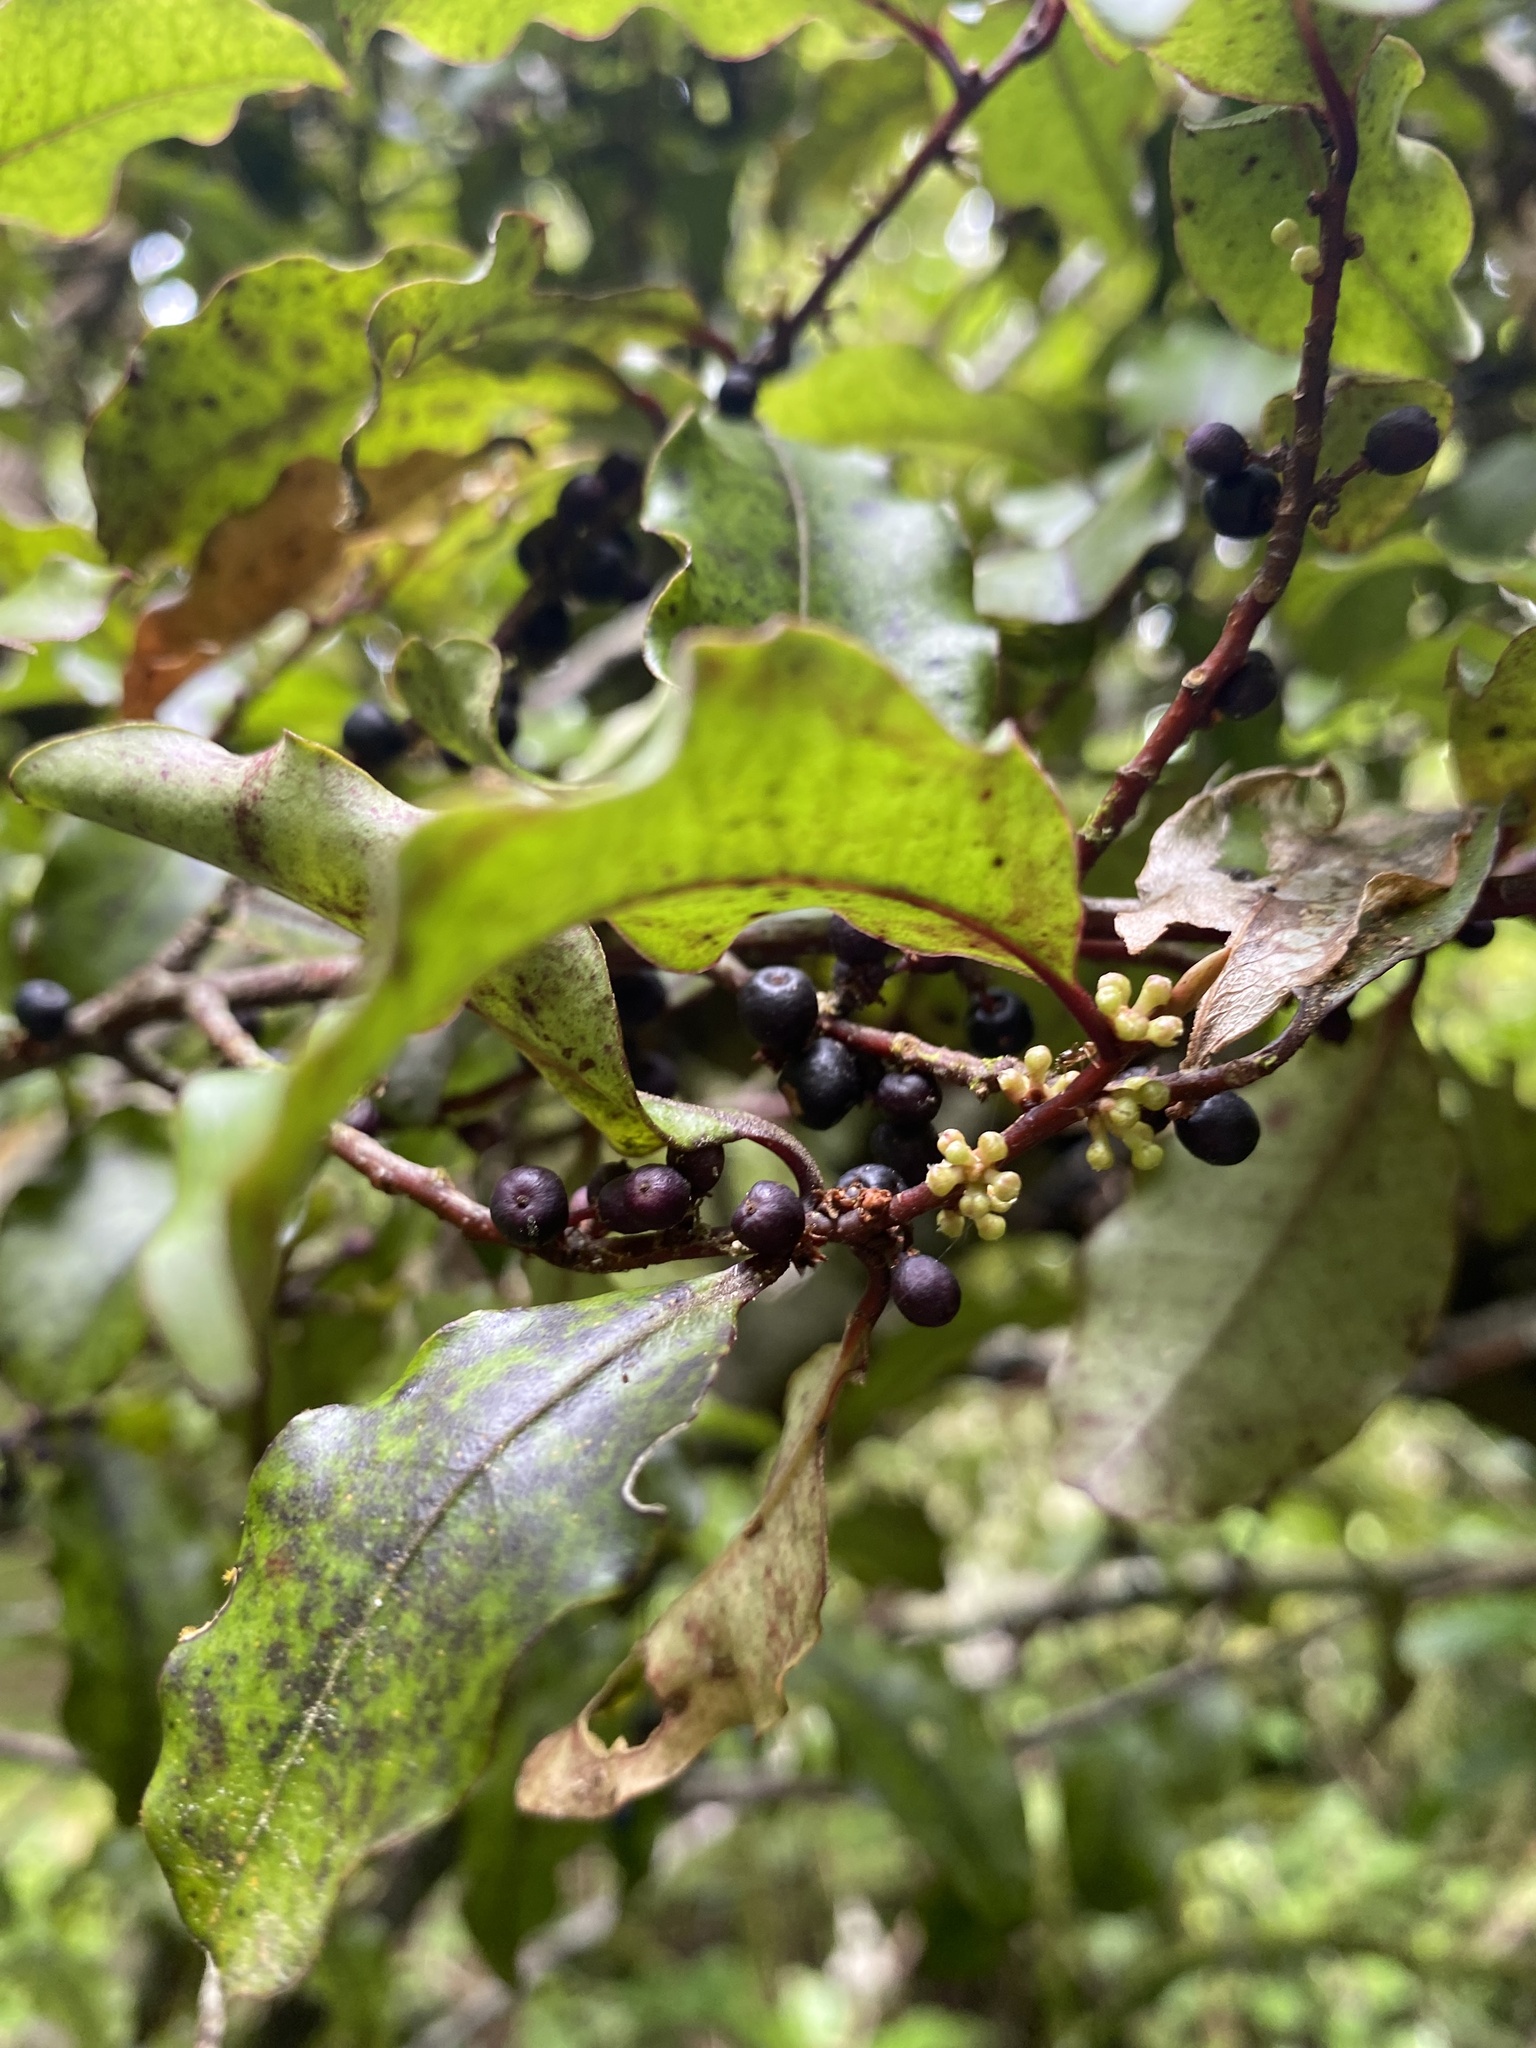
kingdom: Plantae
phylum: Tracheophyta
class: Magnoliopsida
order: Ericales
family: Primulaceae
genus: Myrsine
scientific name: Myrsine australis
